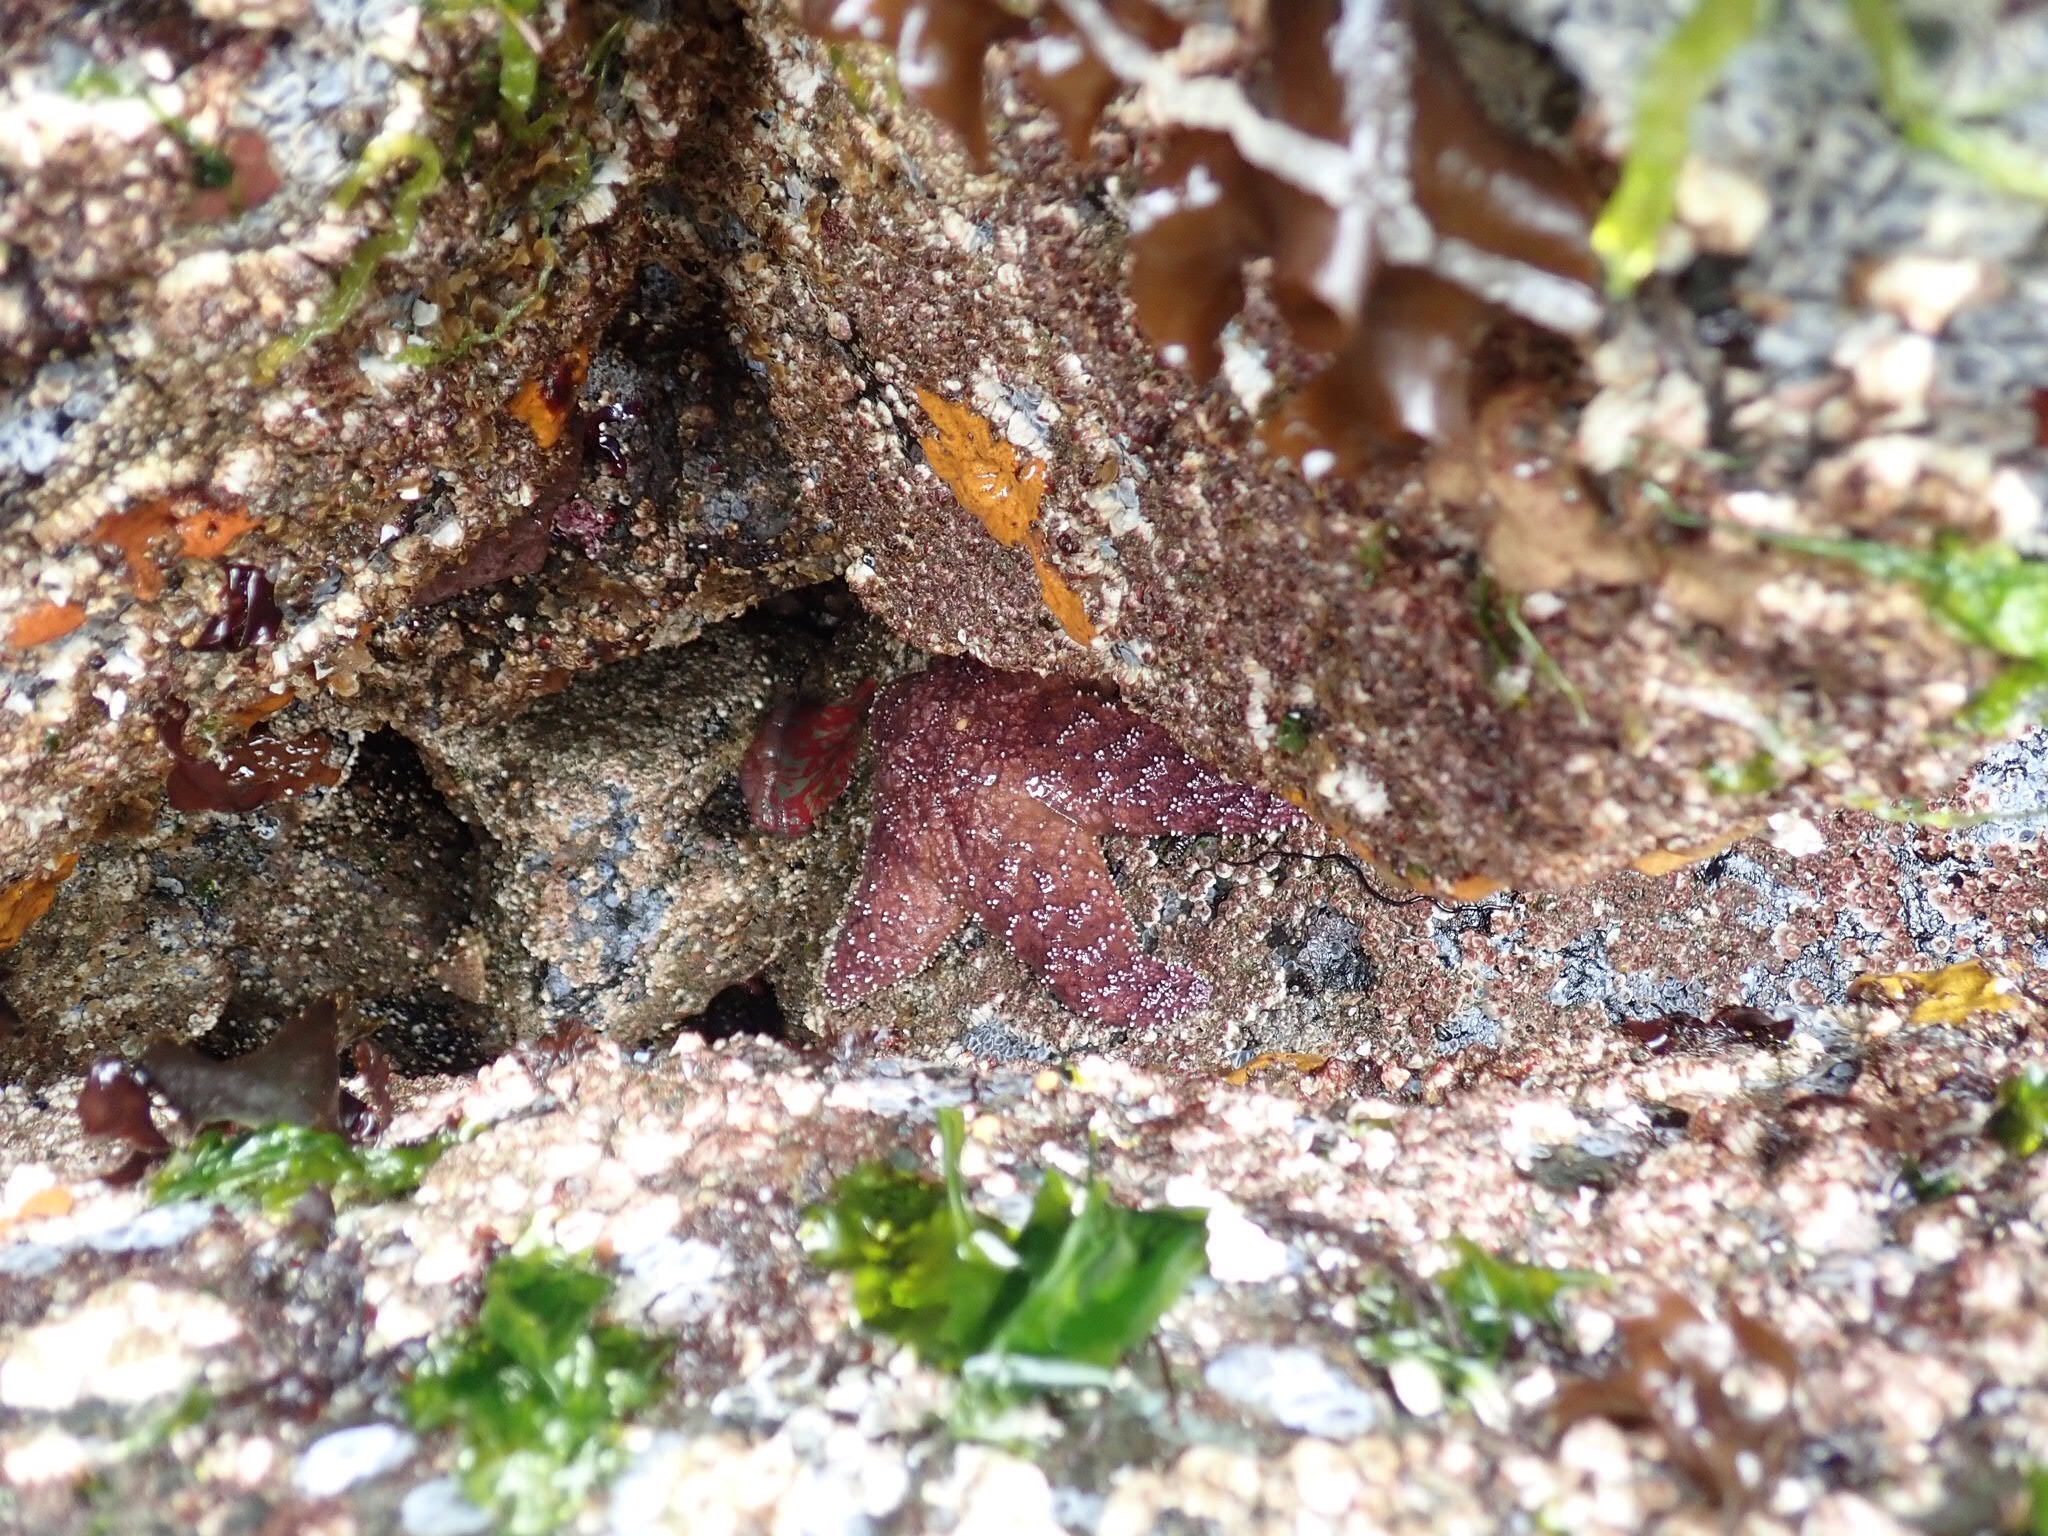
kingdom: Animalia
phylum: Echinodermata
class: Asteroidea
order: Forcipulatida
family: Asteriidae
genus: Pisaster
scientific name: Pisaster ochraceus
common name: Ochre stars
